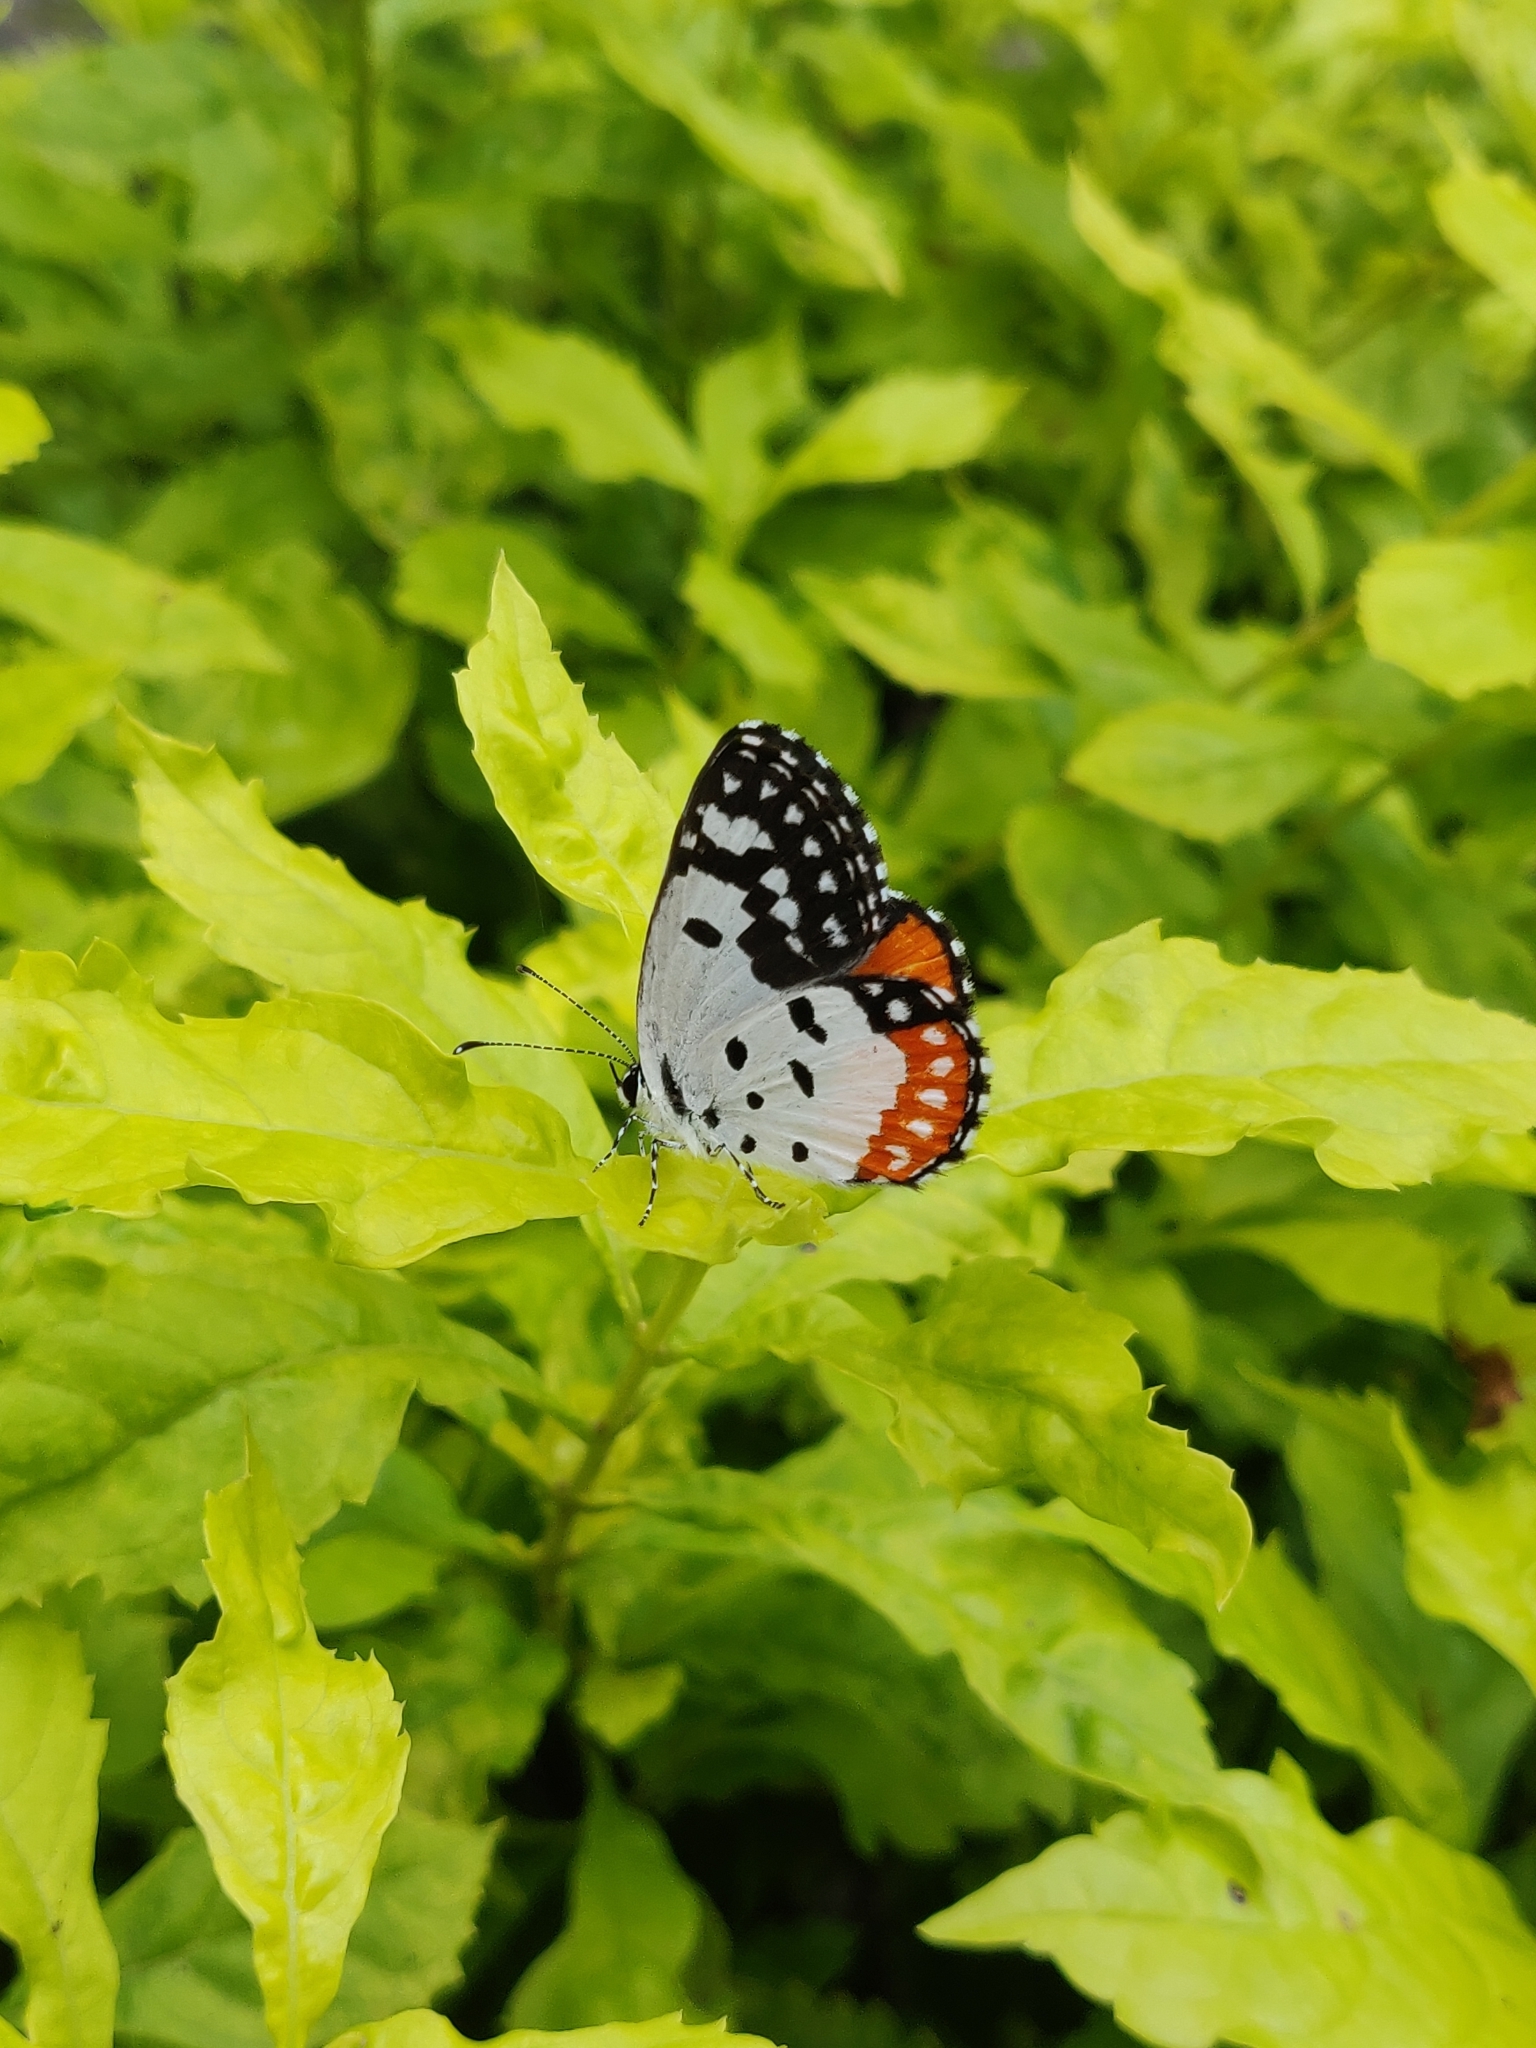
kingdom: Animalia
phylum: Arthropoda
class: Insecta
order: Lepidoptera
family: Lycaenidae
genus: Talicada
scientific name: Talicada nyseus
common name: Red pierrot
